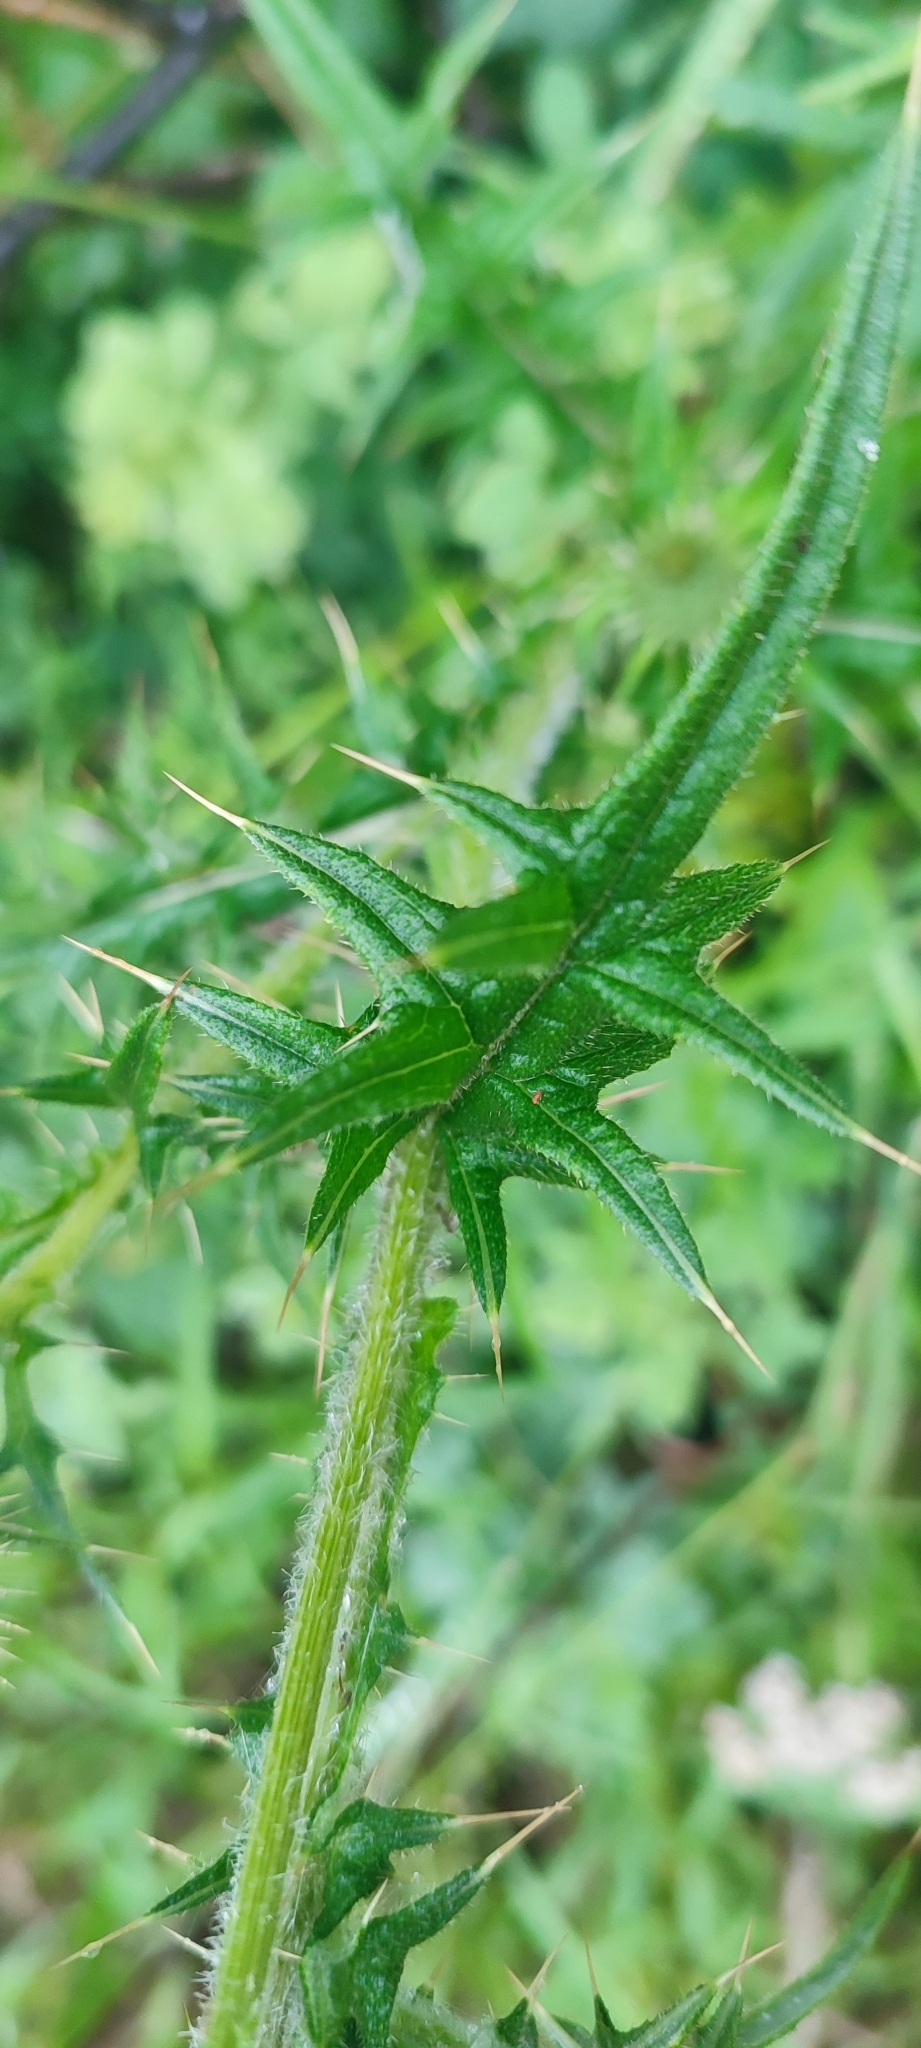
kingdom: Plantae
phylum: Tracheophyta
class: Magnoliopsida
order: Asterales
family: Asteraceae
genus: Cirsium
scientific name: Cirsium vulgare
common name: Bull thistle
